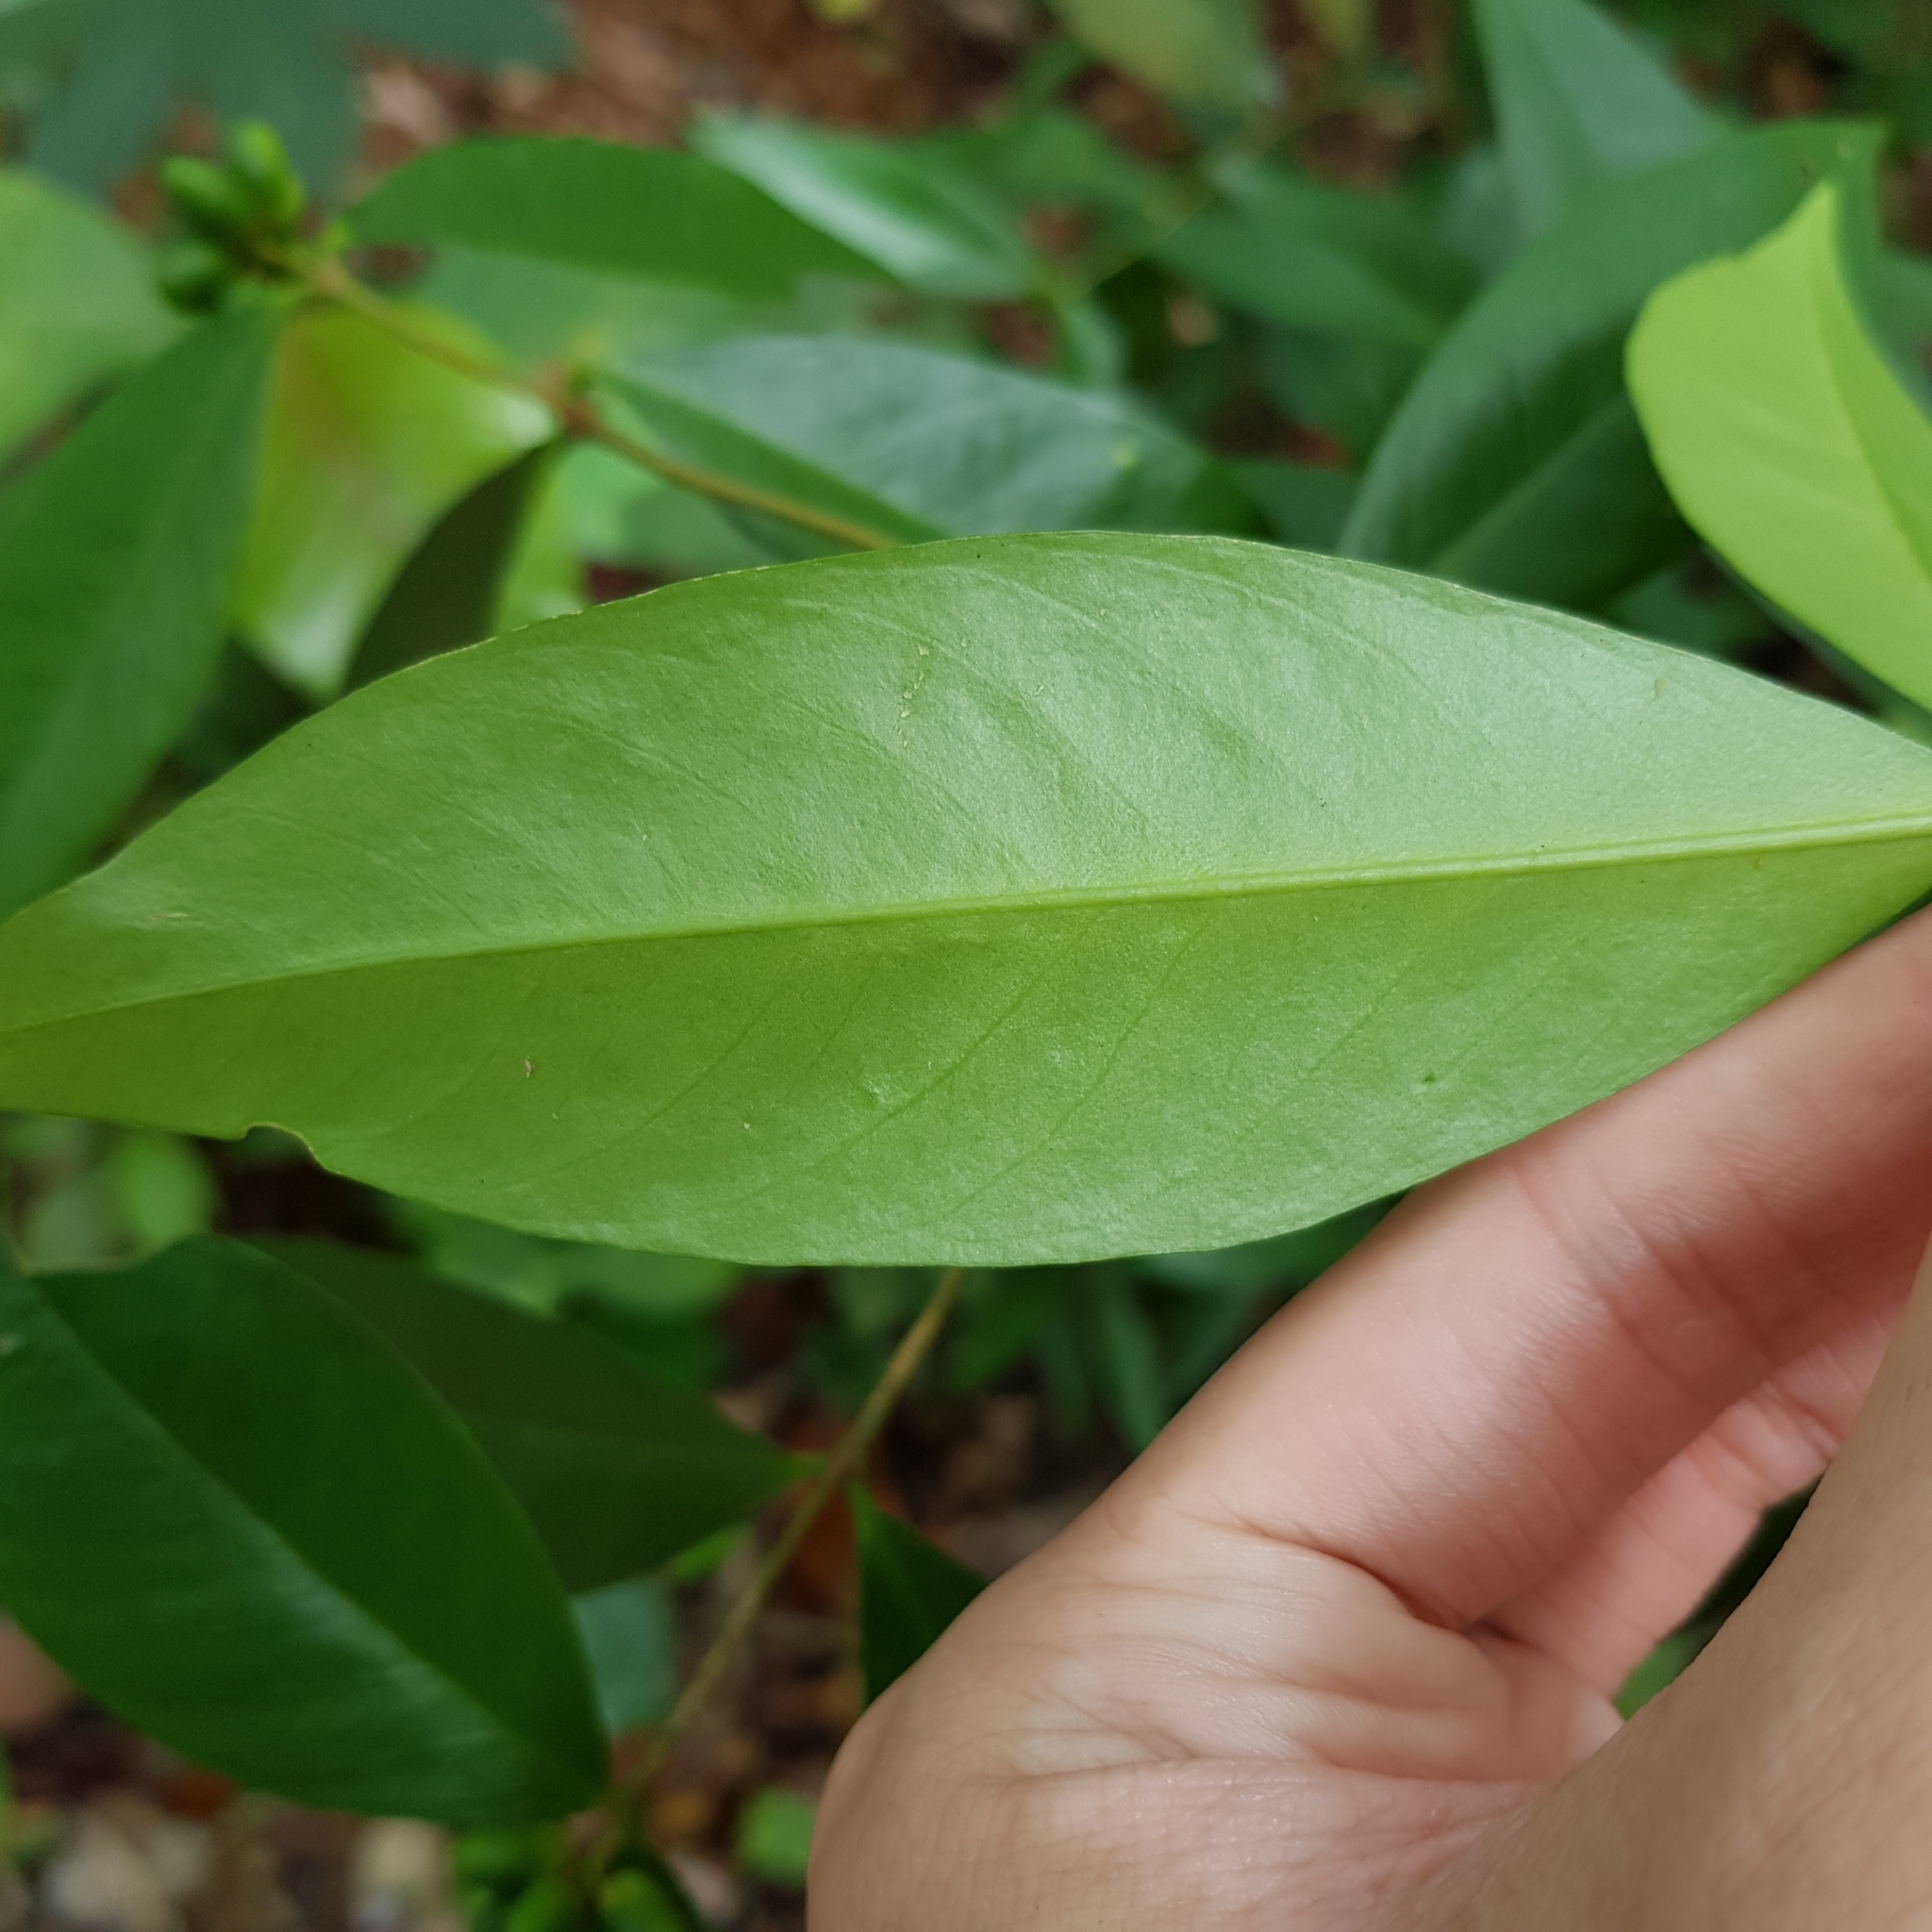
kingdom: Plantae
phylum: Tracheophyta
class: Magnoliopsida
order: Malvales
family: Thymelaeaceae
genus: Wikstroemia
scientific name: Wikstroemia ridleyi
